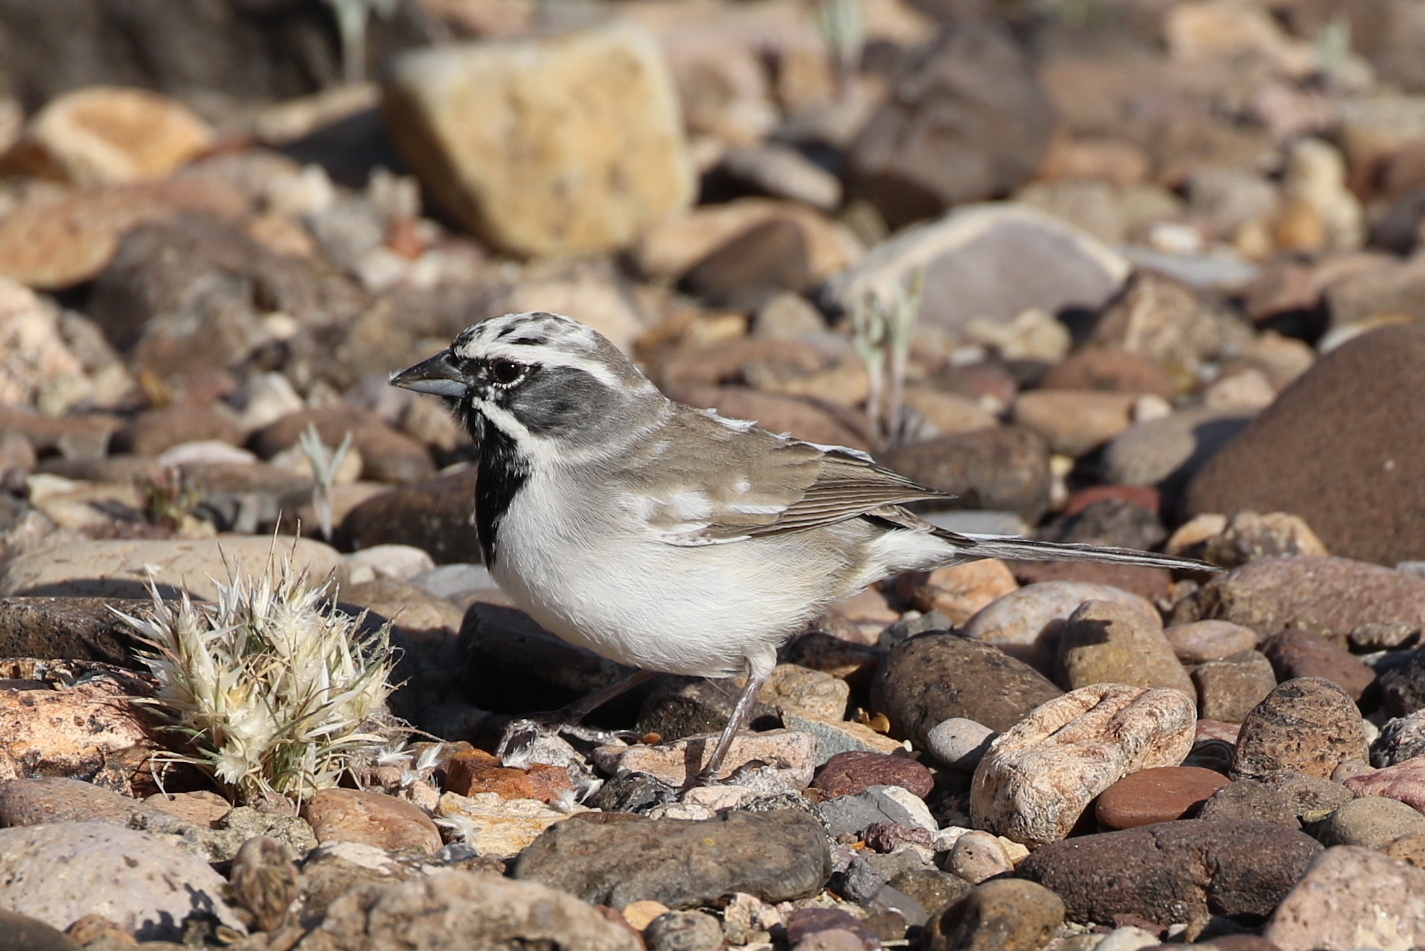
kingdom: Animalia
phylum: Chordata
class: Aves
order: Passeriformes
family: Passerellidae
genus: Amphispiza
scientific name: Amphispiza bilineata
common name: Black-throated sparrow
